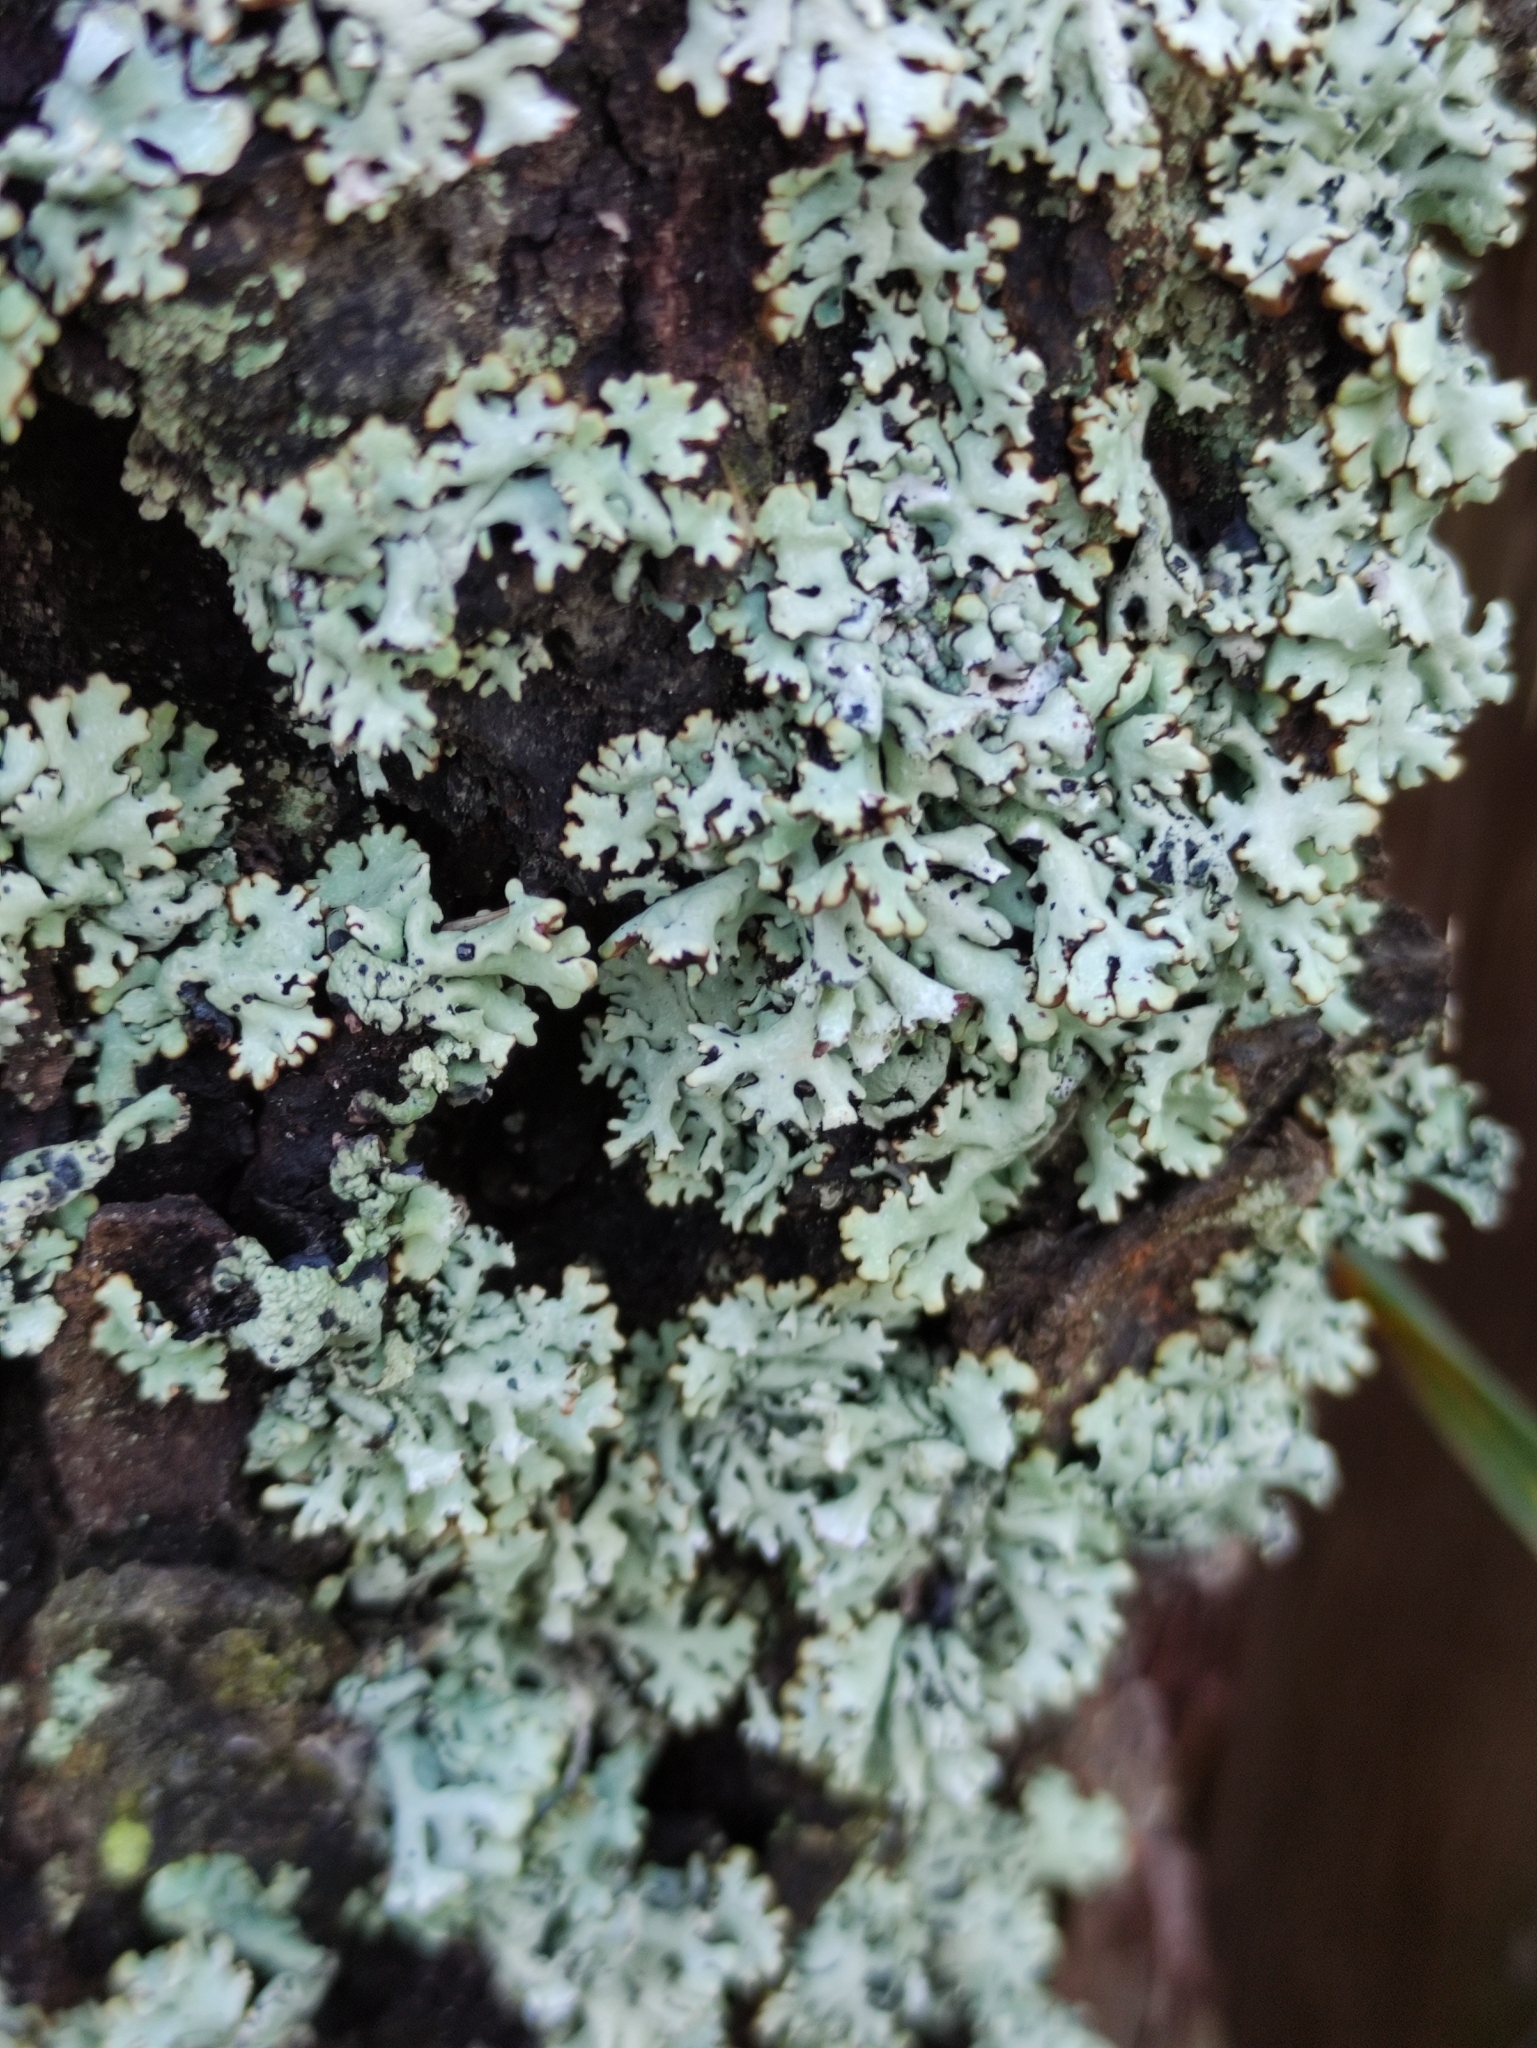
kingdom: Fungi
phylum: Ascomycota
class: Lecanoromycetes
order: Lecanorales
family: Parmeliaceae
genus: Hypogymnia
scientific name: Hypogymnia physodes
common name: Dark crottle
